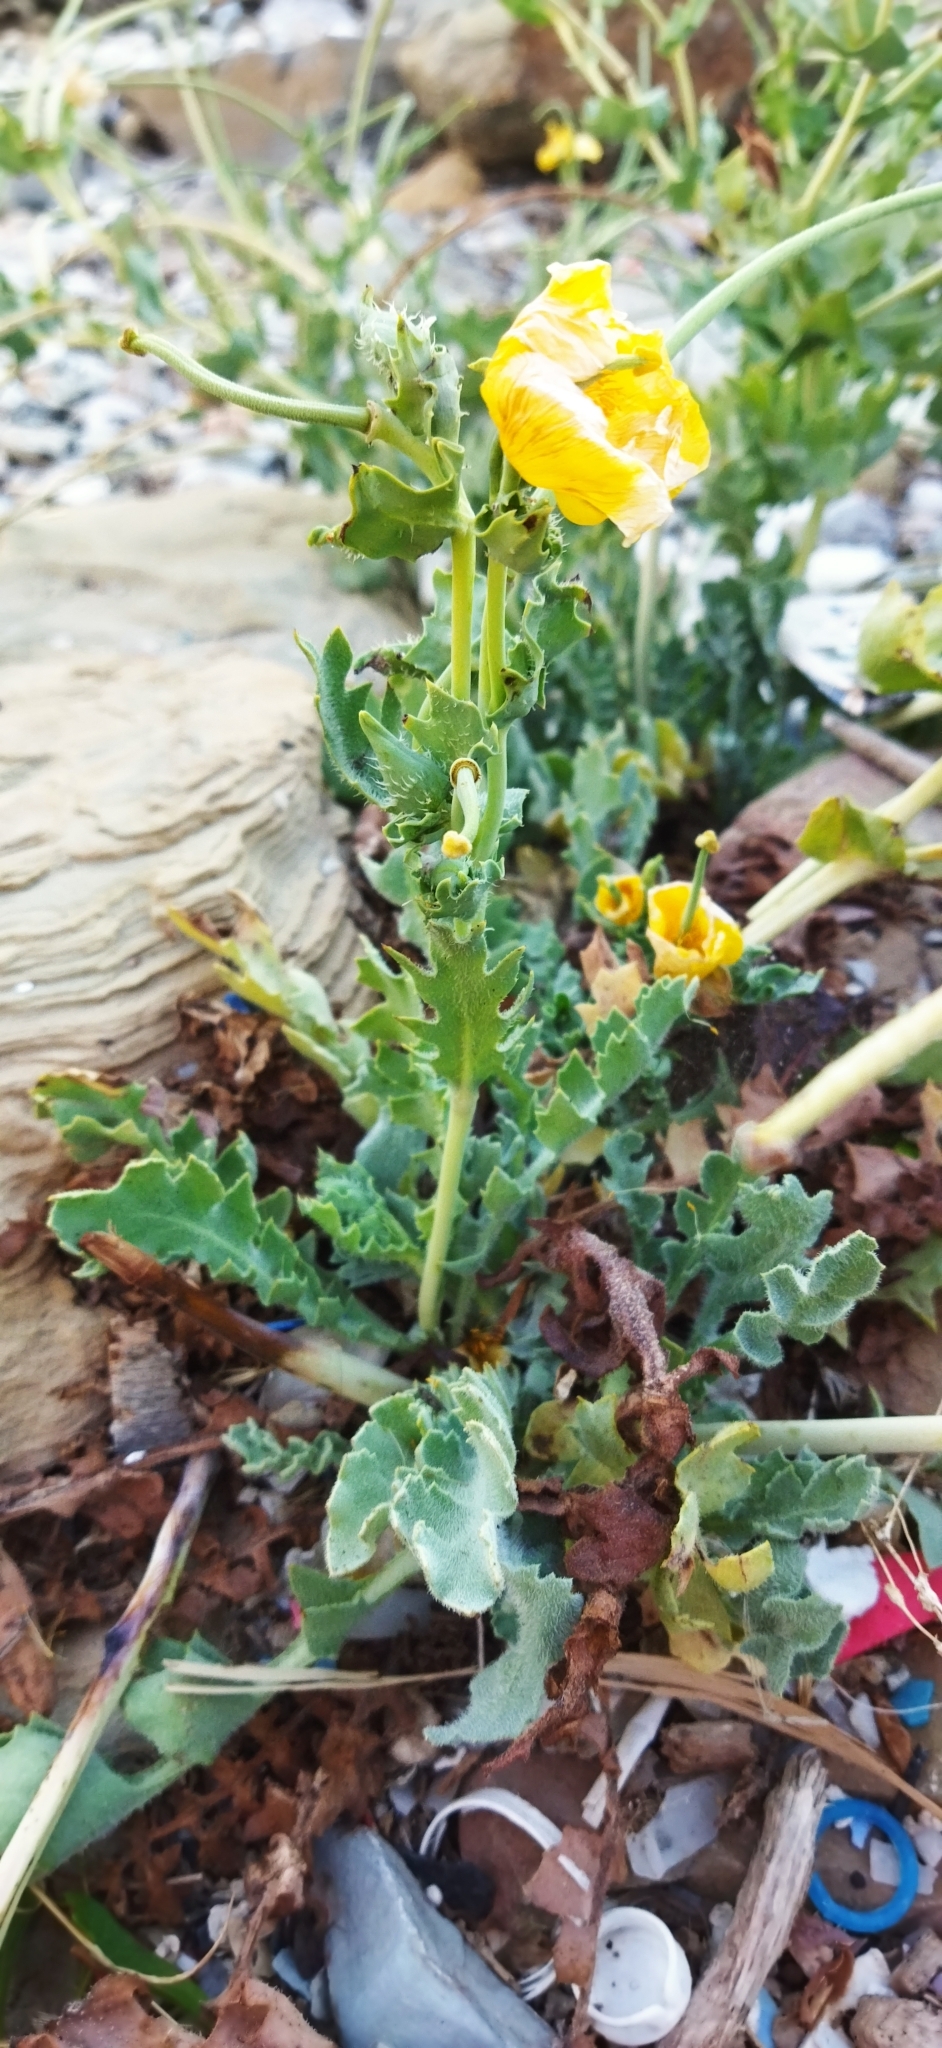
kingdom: Plantae
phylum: Tracheophyta
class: Magnoliopsida
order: Ranunculales
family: Papaveraceae
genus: Glaucium
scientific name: Glaucium flavum
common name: Yellow horned-poppy
